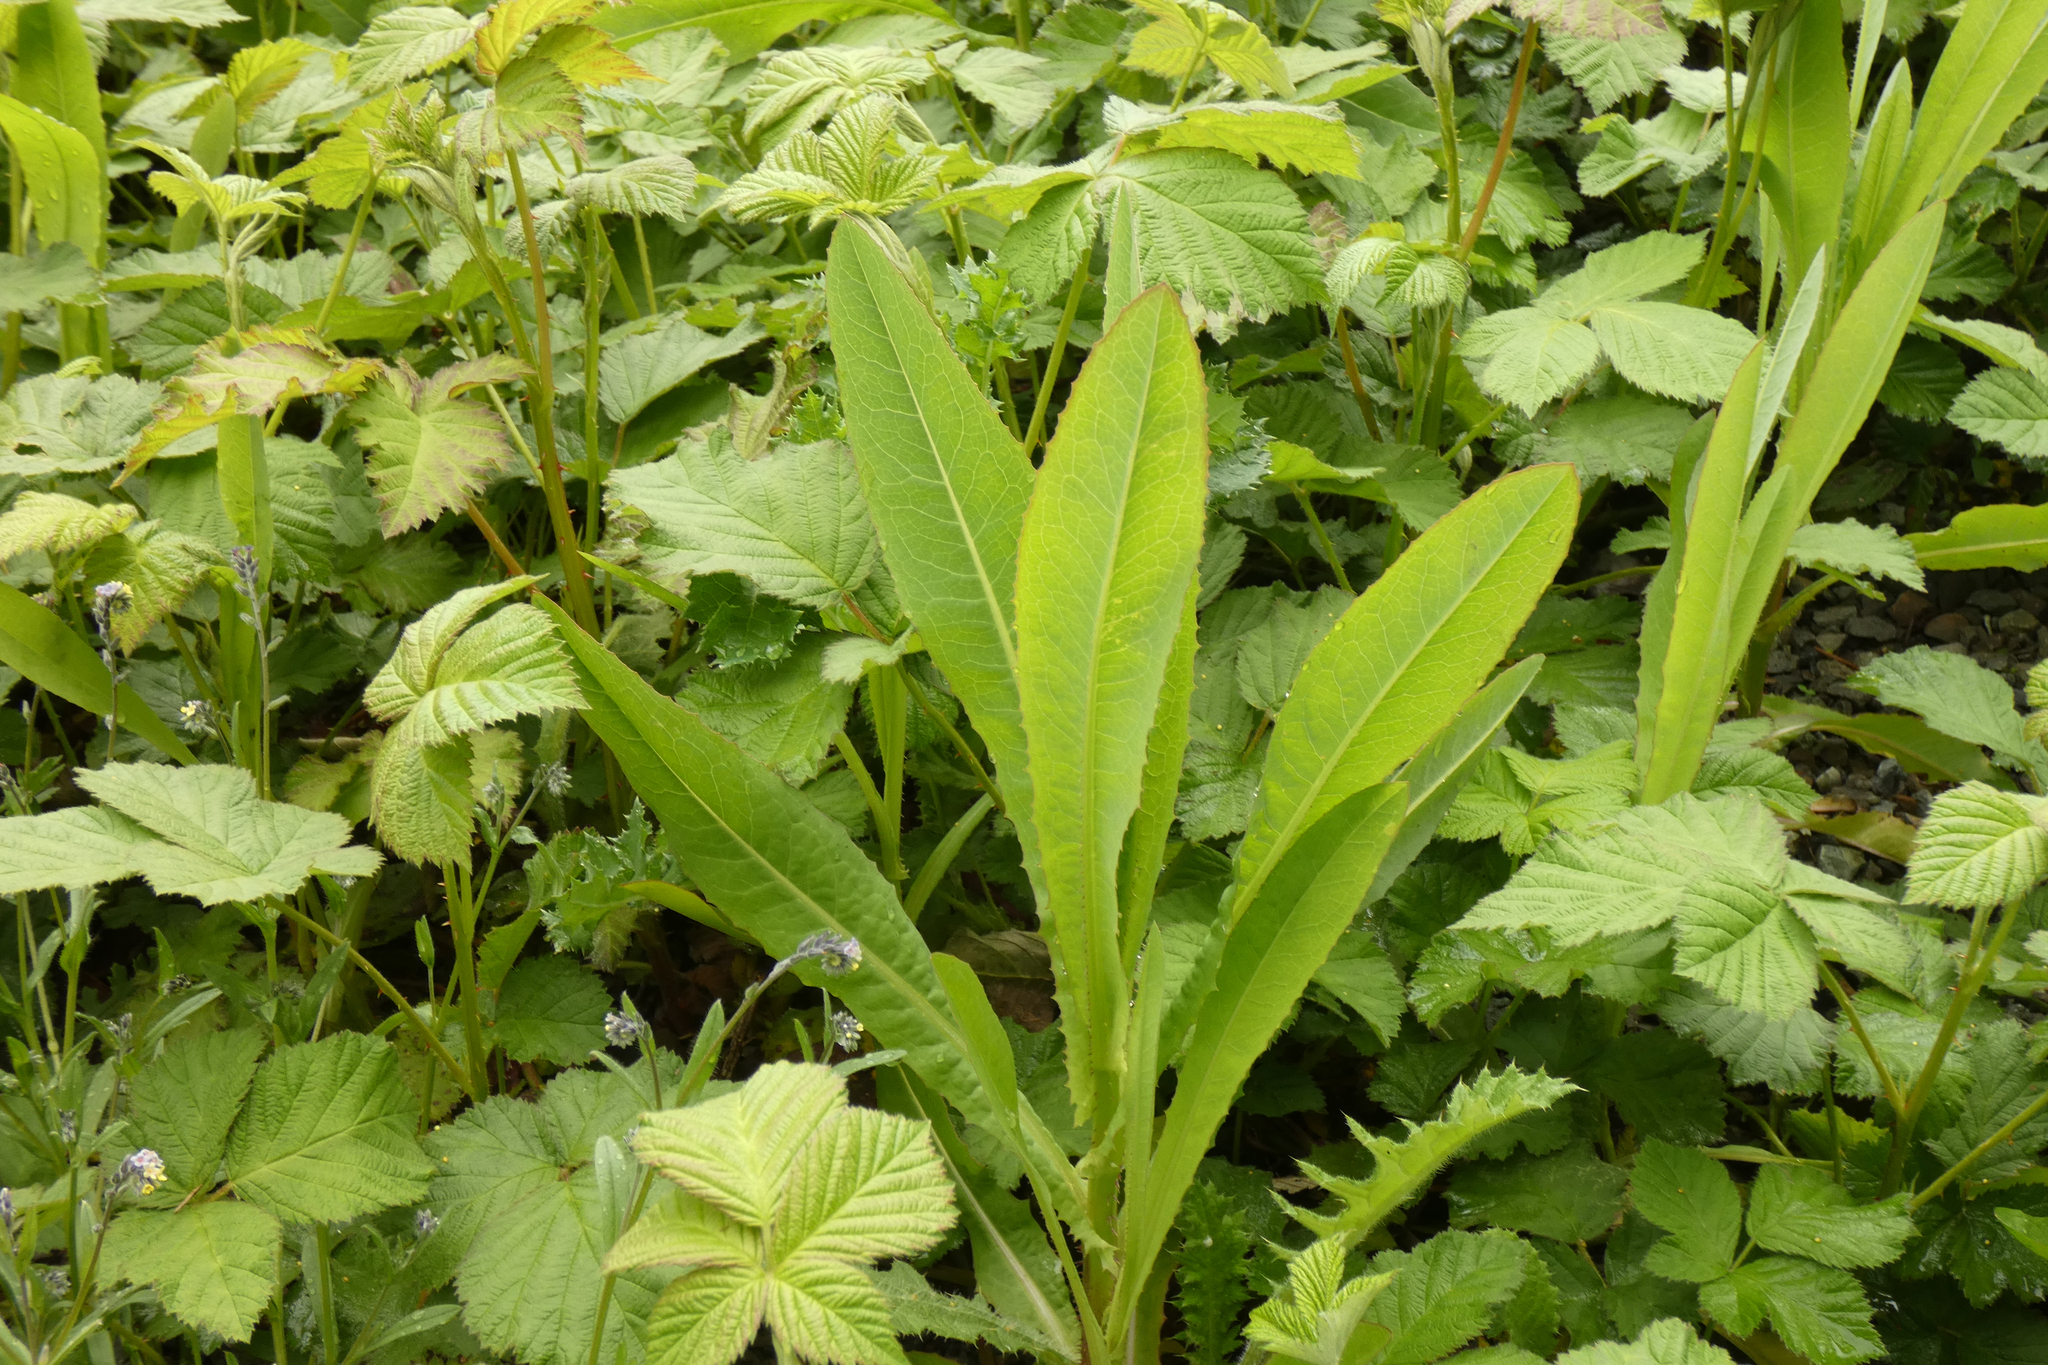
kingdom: Plantae
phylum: Tracheophyta
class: Magnoliopsida
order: Asterales
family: Asteraceae
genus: Lactuca
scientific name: Lactuca serriola
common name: Prickly lettuce
